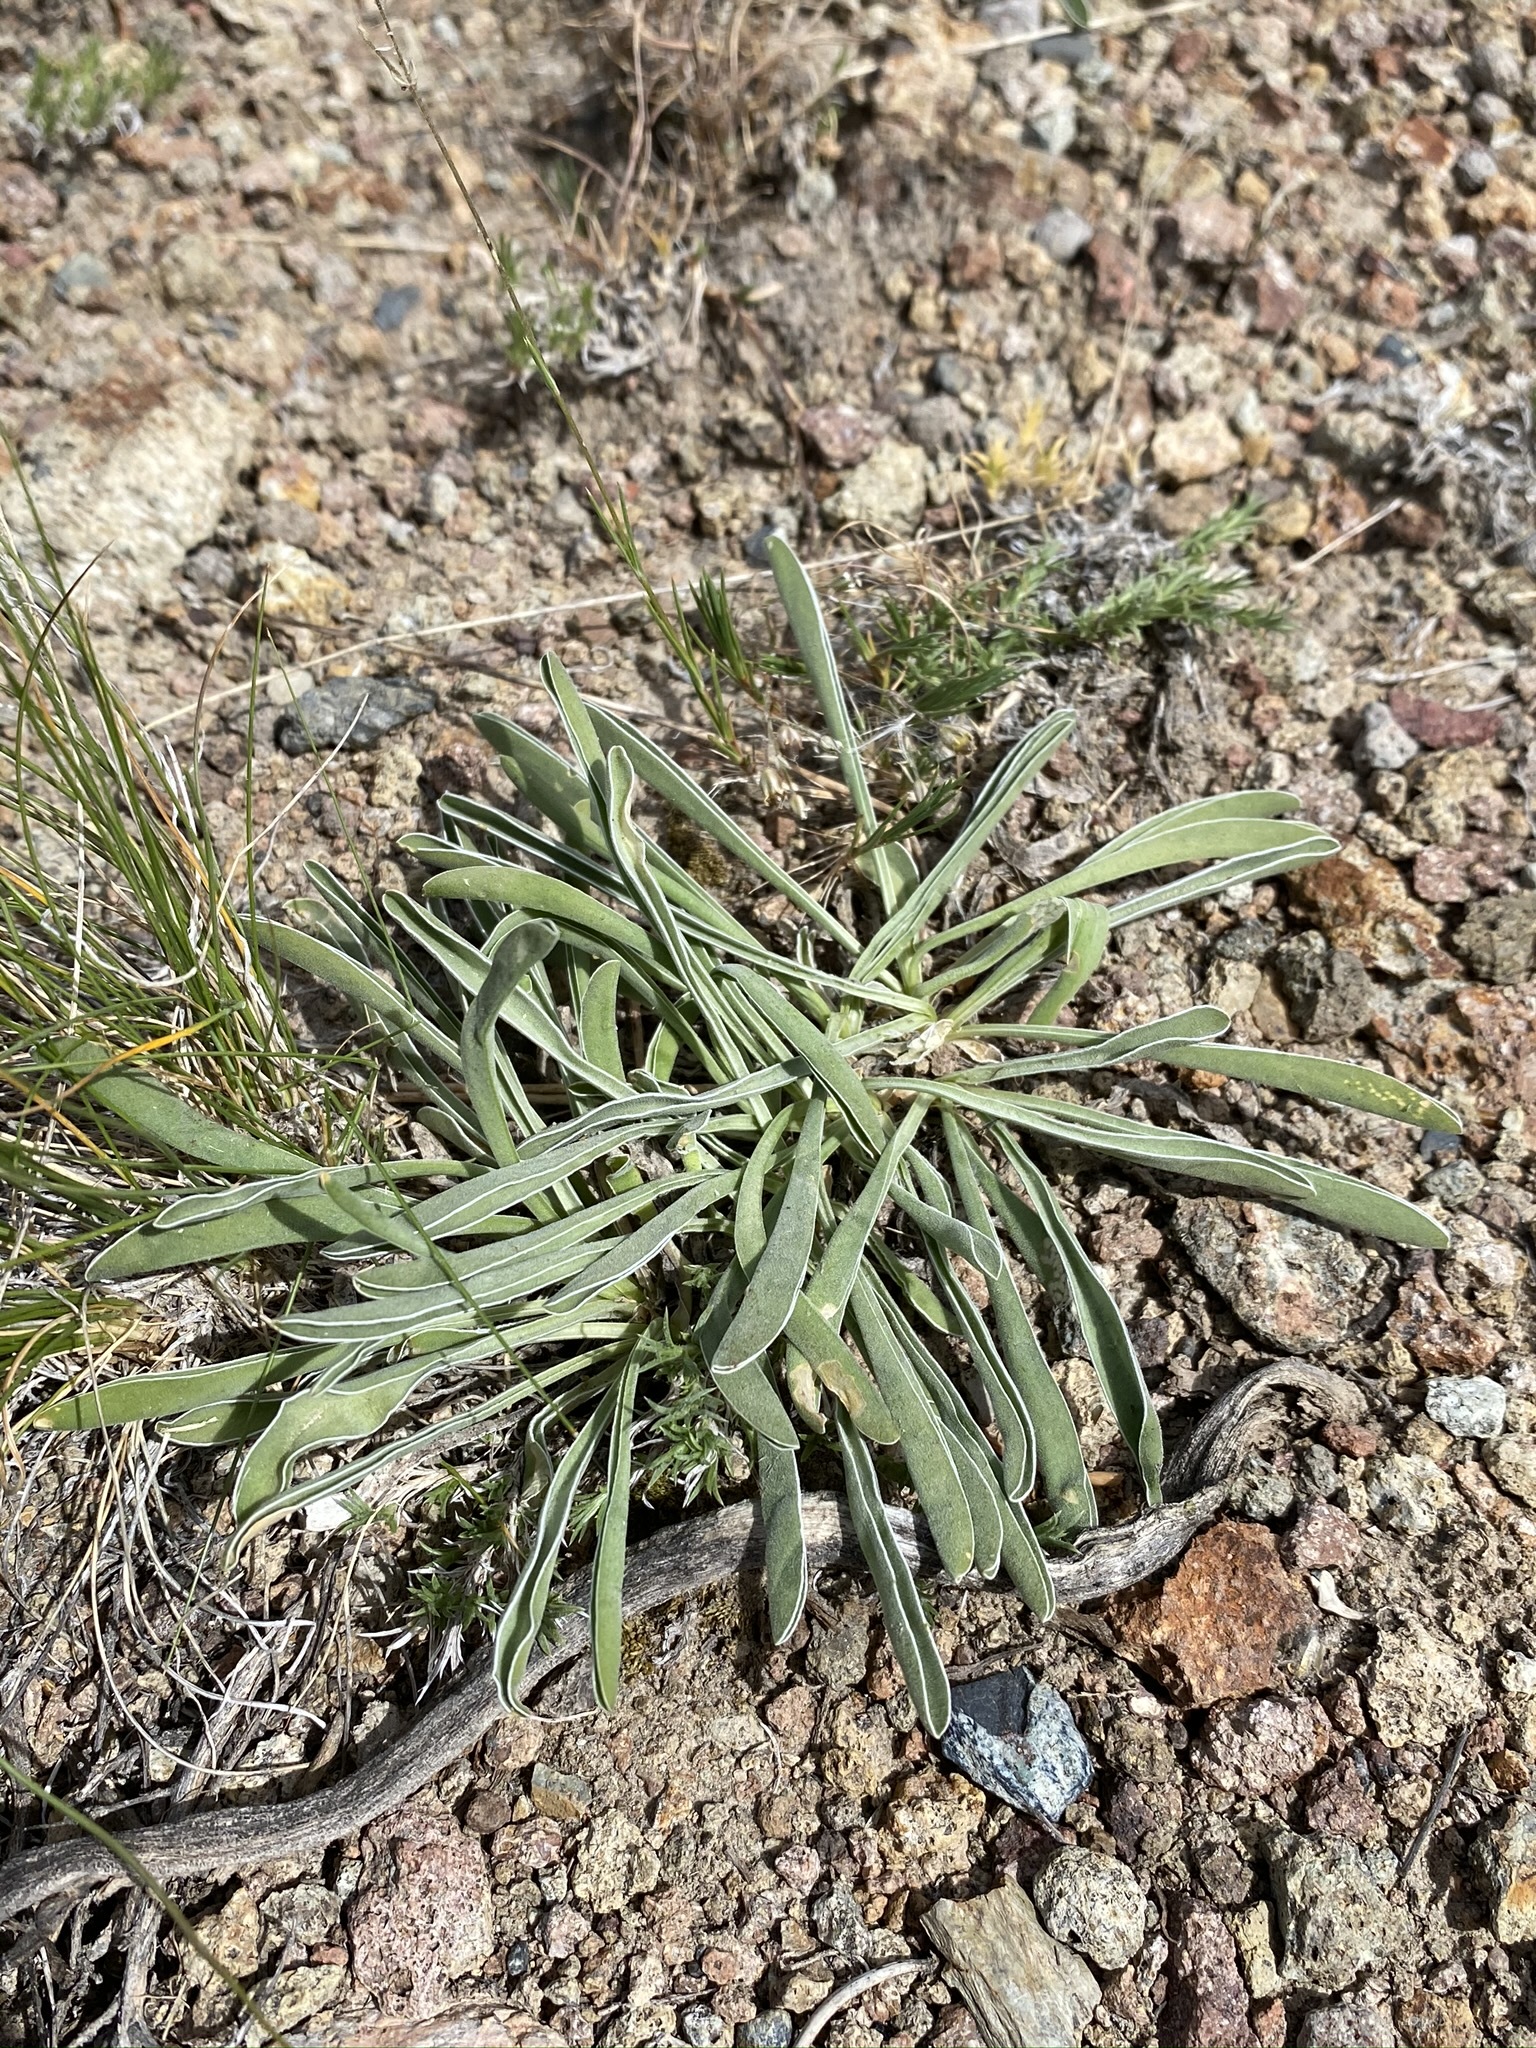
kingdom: Plantae
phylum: Tracheophyta
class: Magnoliopsida
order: Gentianales
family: Gentianaceae
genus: Frasera
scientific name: Frasera albicaulis
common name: Cusick's frasera
